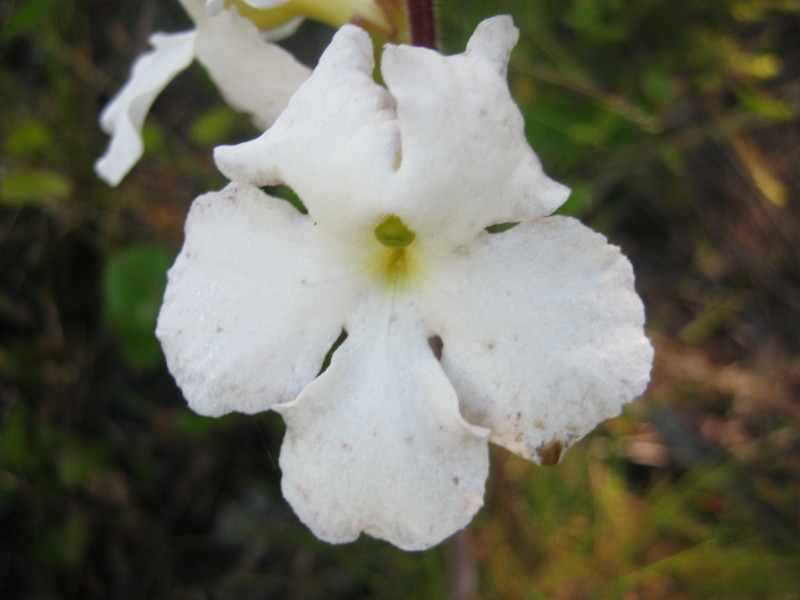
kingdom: Plantae
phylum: Tracheophyta
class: Magnoliopsida
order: Lamiales
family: Orobanchaceae
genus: Harveya
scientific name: Harveya capensis
